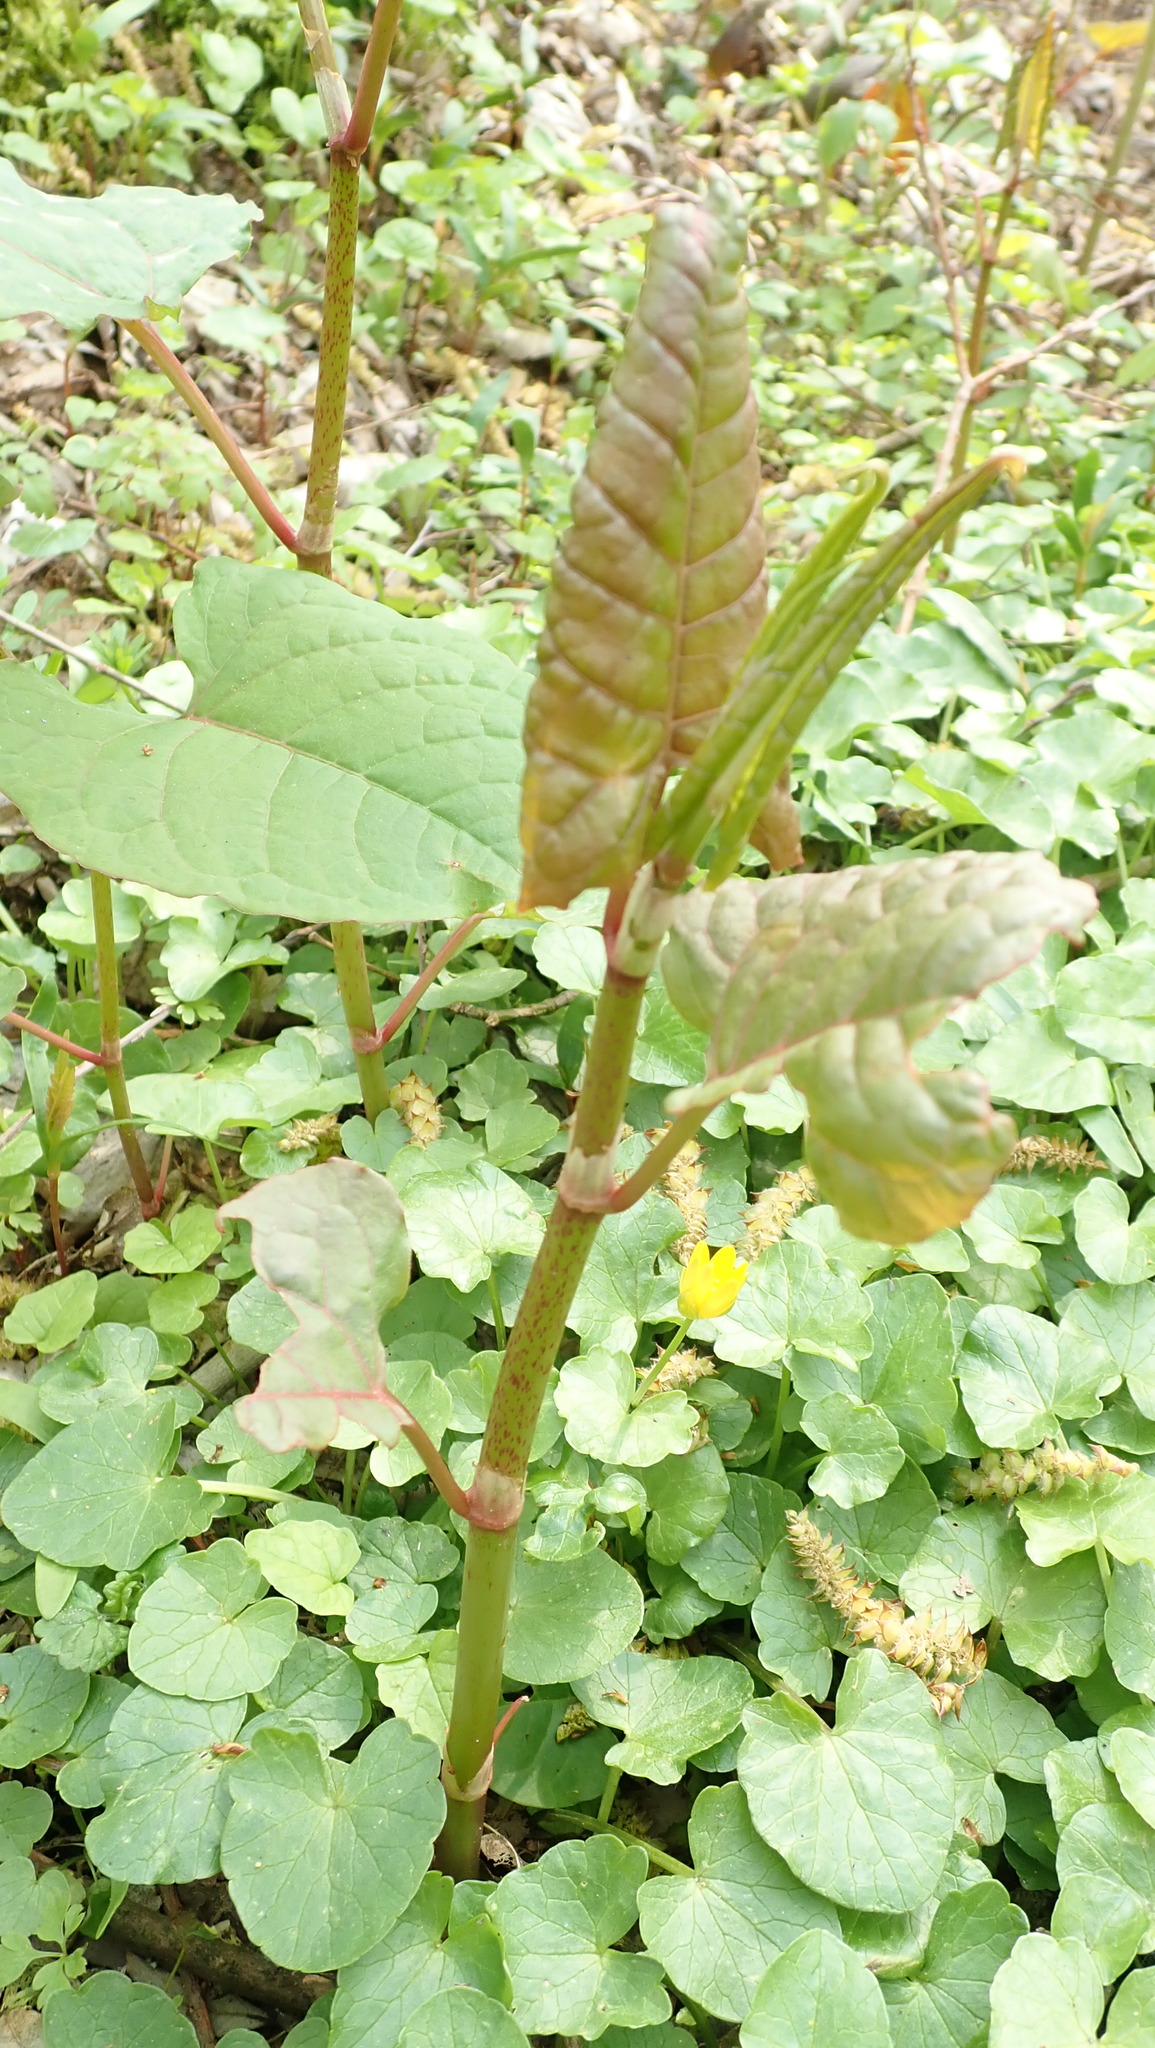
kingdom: Plantae
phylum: Tracheophyta
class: Magnoliopsida
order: Caryophyllales
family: Polygonaceae
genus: Reynoutria
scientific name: Reynoutria japonica
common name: Japanese knotweed
